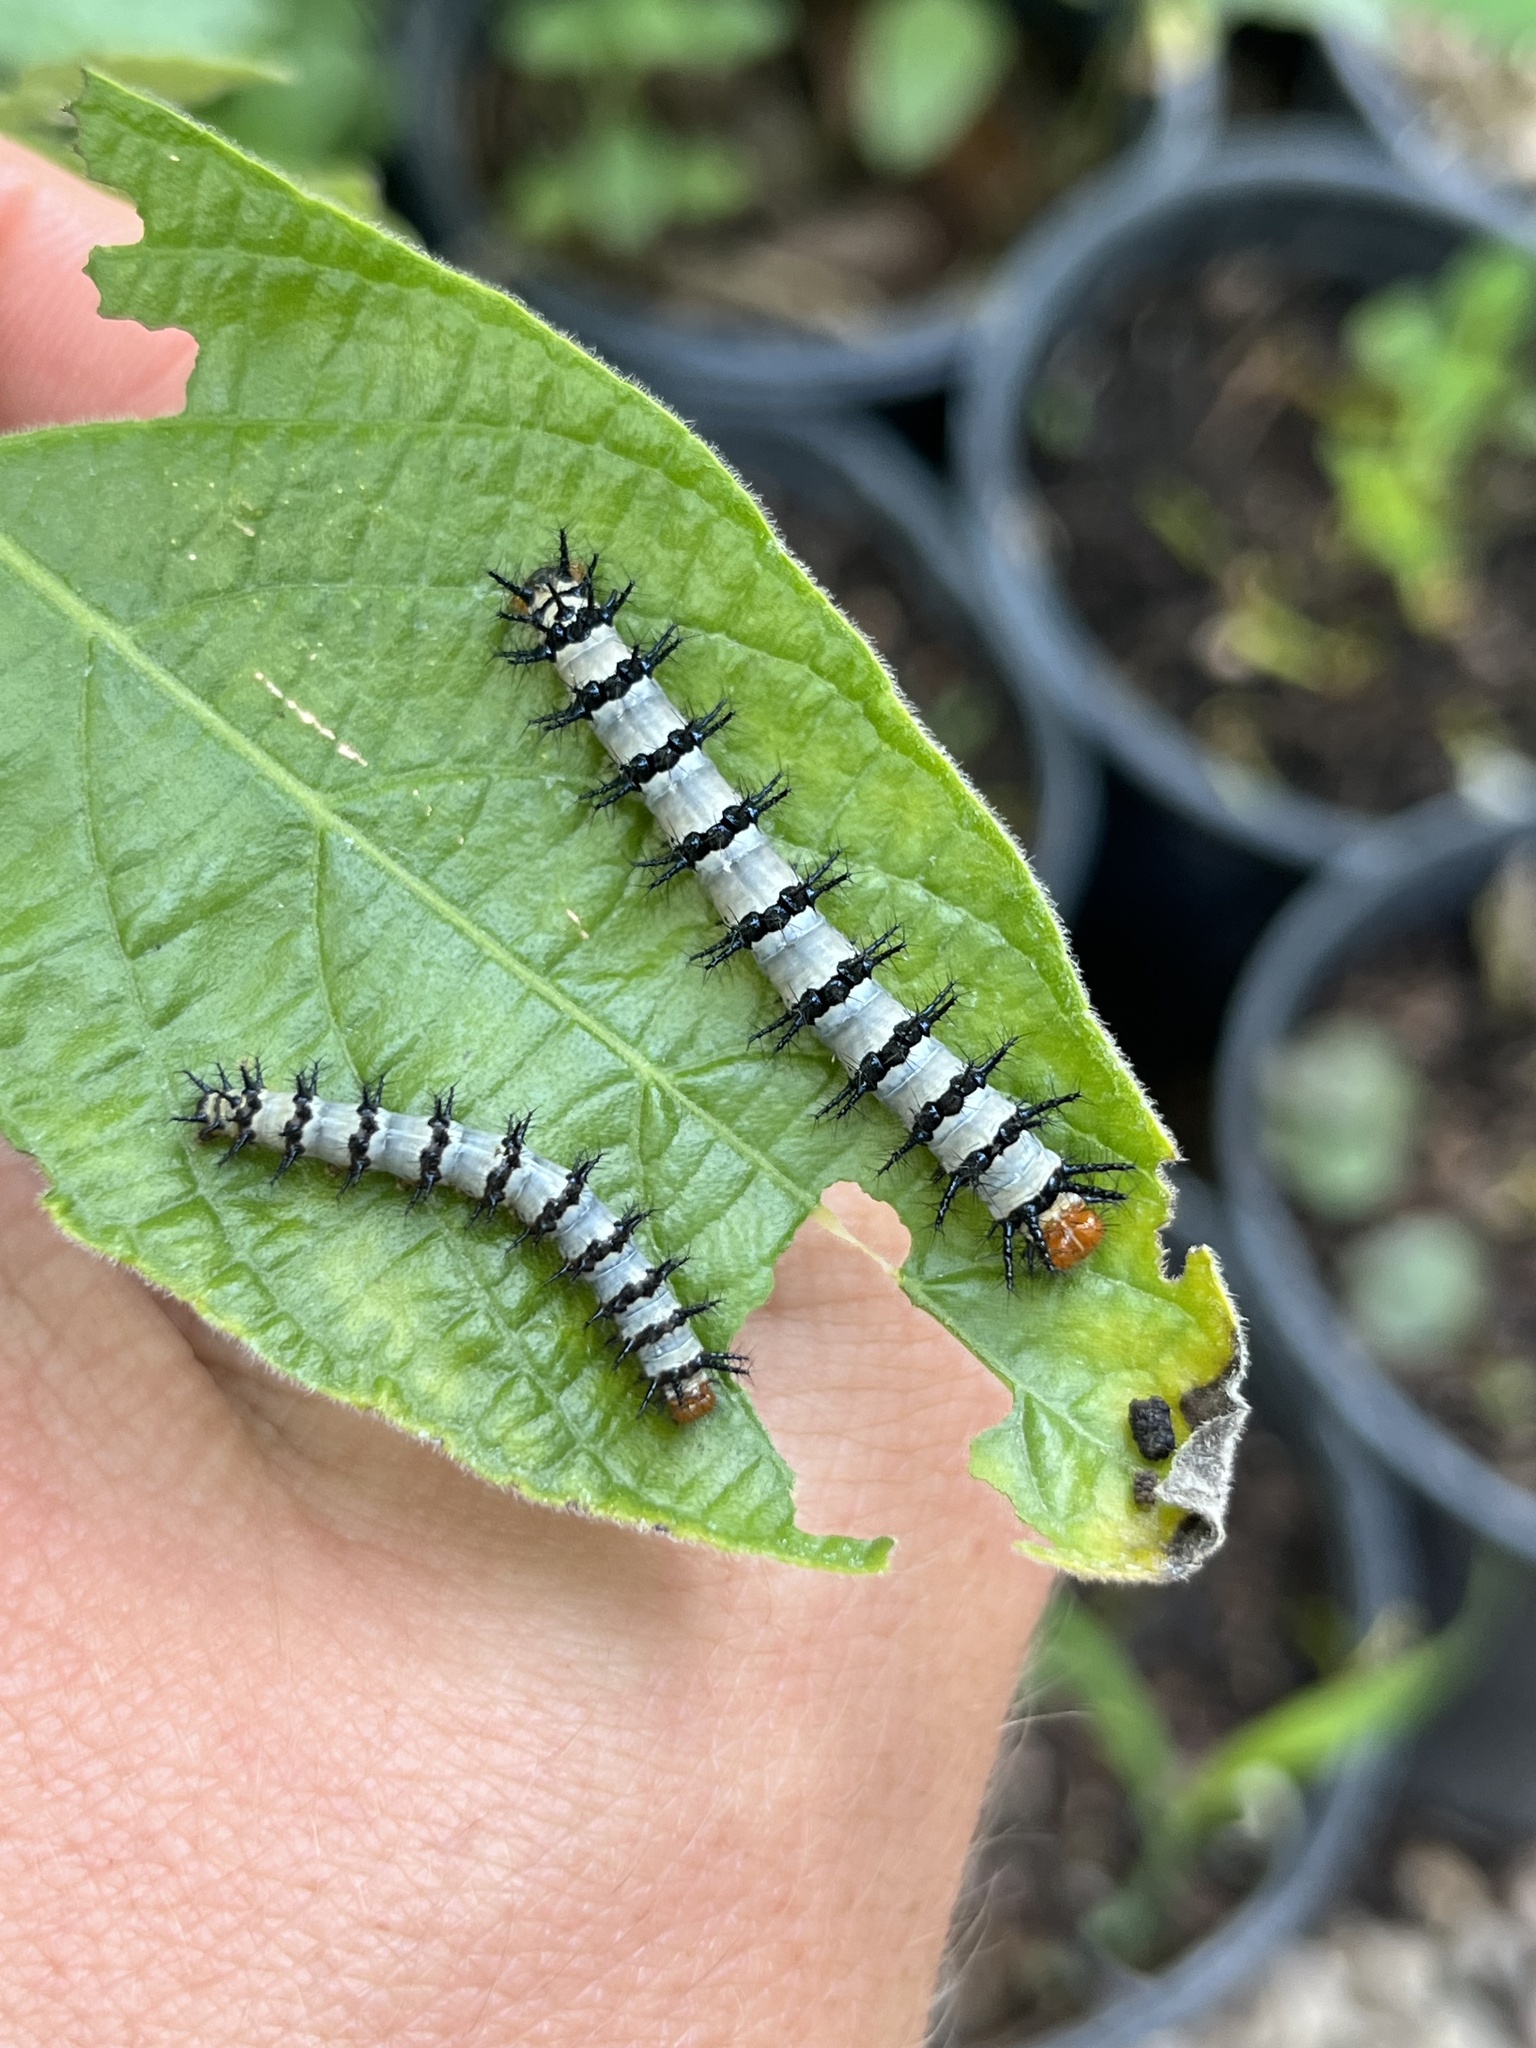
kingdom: Animalia
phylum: Arthropoda
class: Insecta
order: Lepidoptera
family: Nymphalidae
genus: Chlosyne
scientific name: Chlosyne janais
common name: Crimson patch
